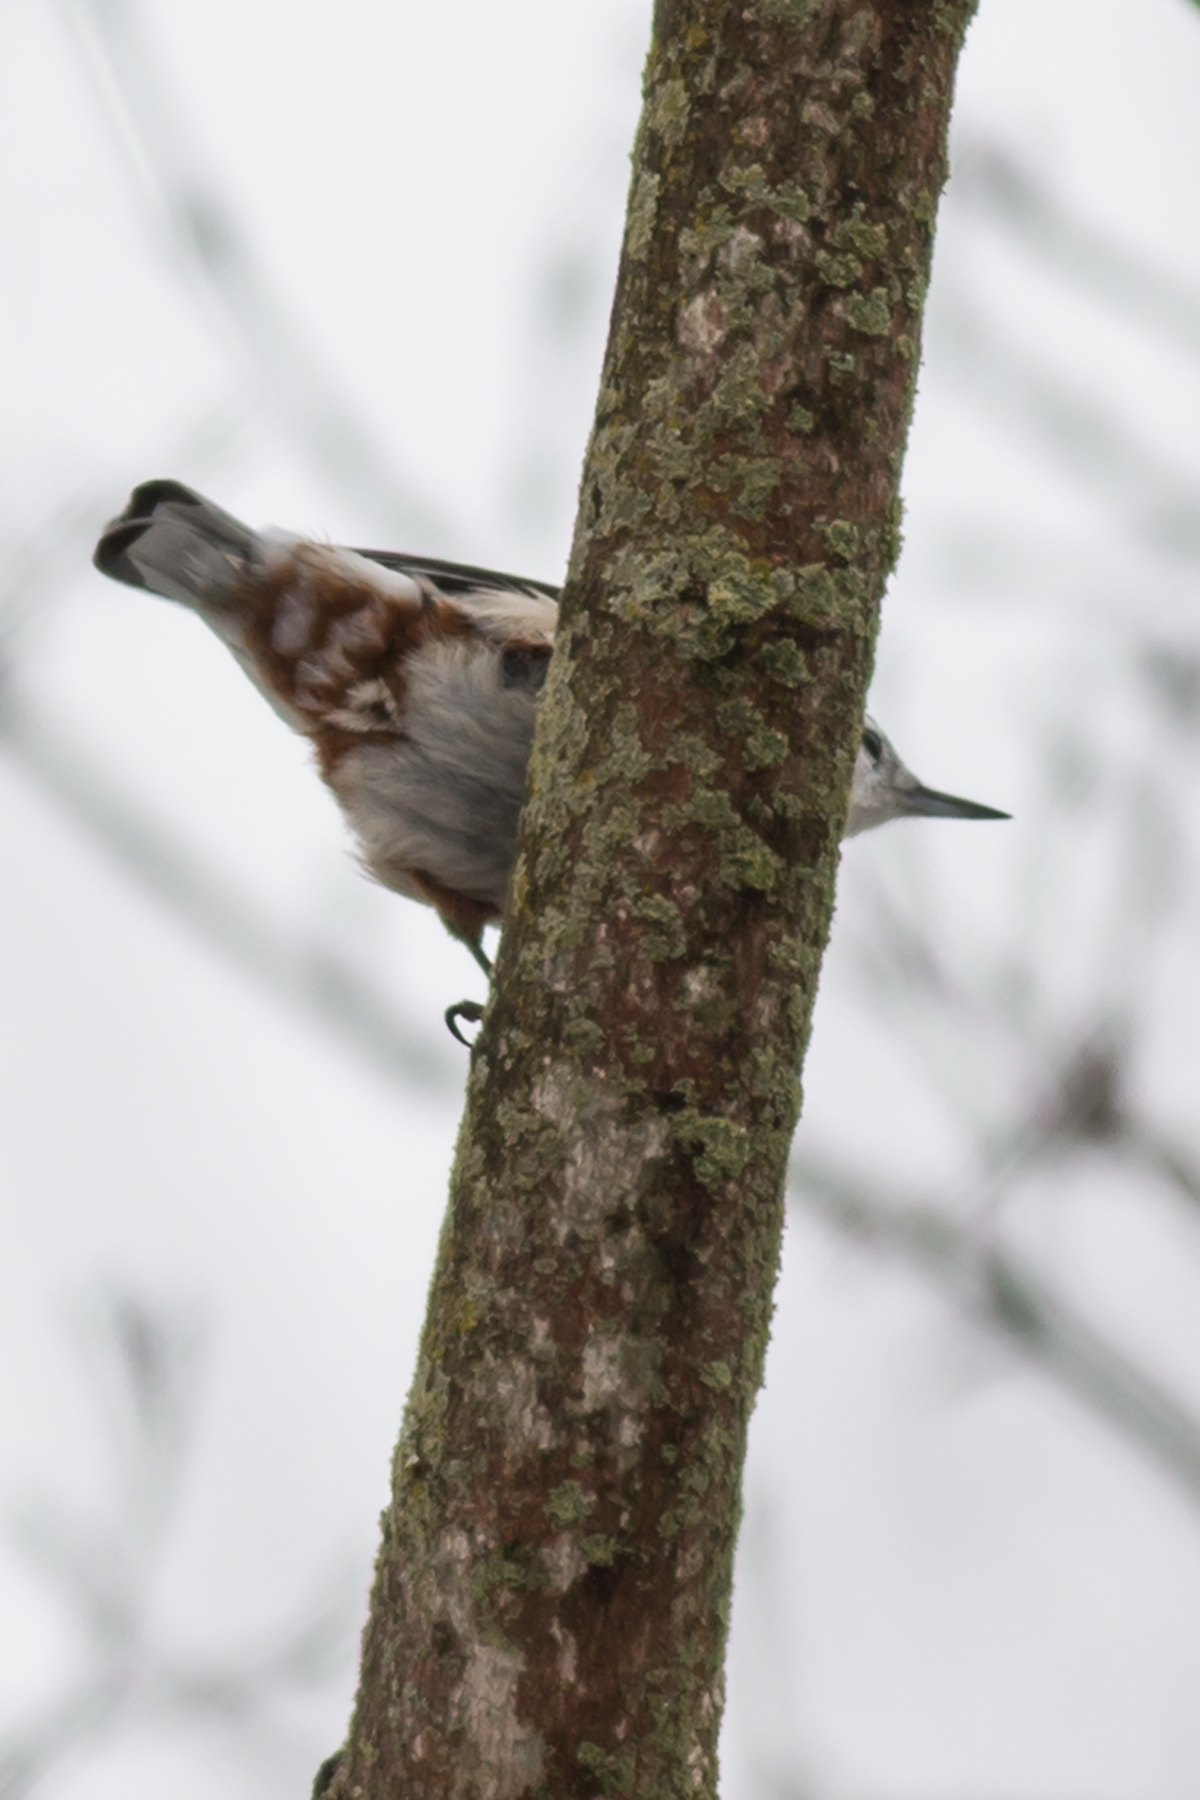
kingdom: Animalia
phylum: Chordata
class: Aves
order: Passeriformes
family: Sittidae
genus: Sitta
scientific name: Sitta carolinensis
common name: White-breasted nuthatch
